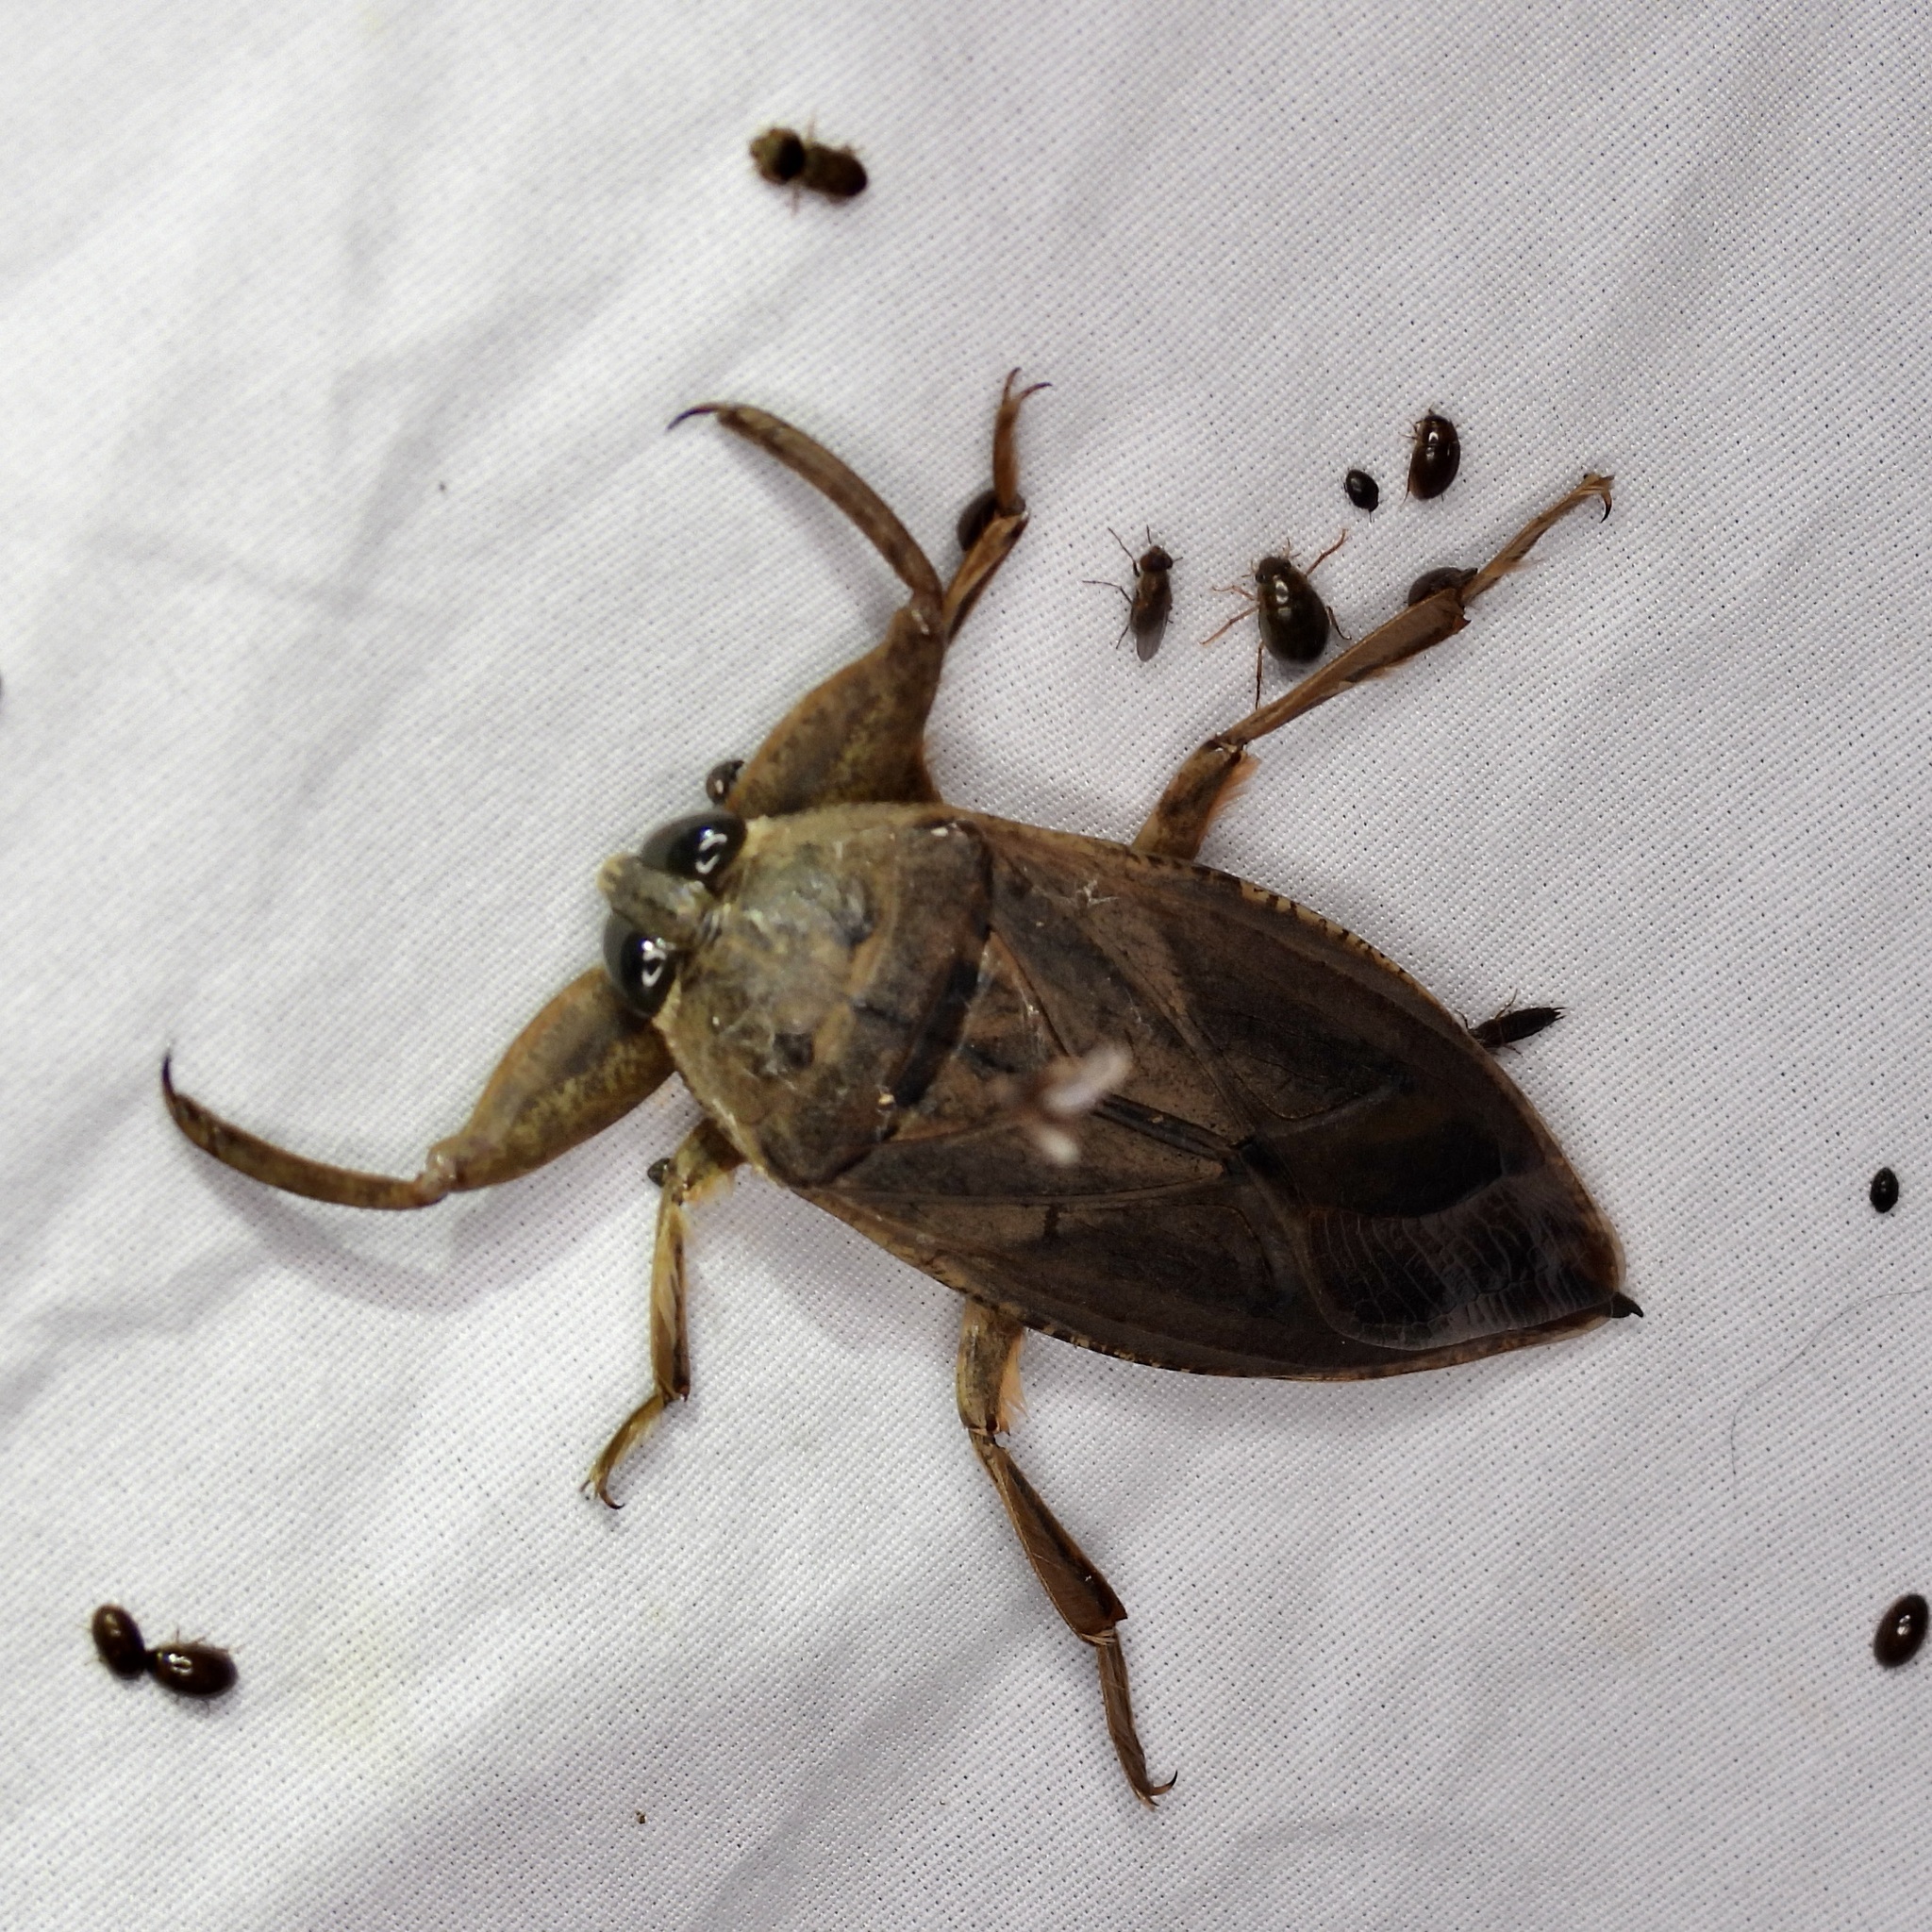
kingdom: Animalia
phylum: Arthropoda
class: Insecta
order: Hemiptera
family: Belostomatidae
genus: Lethocerus
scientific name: Lethocerus uhleri
